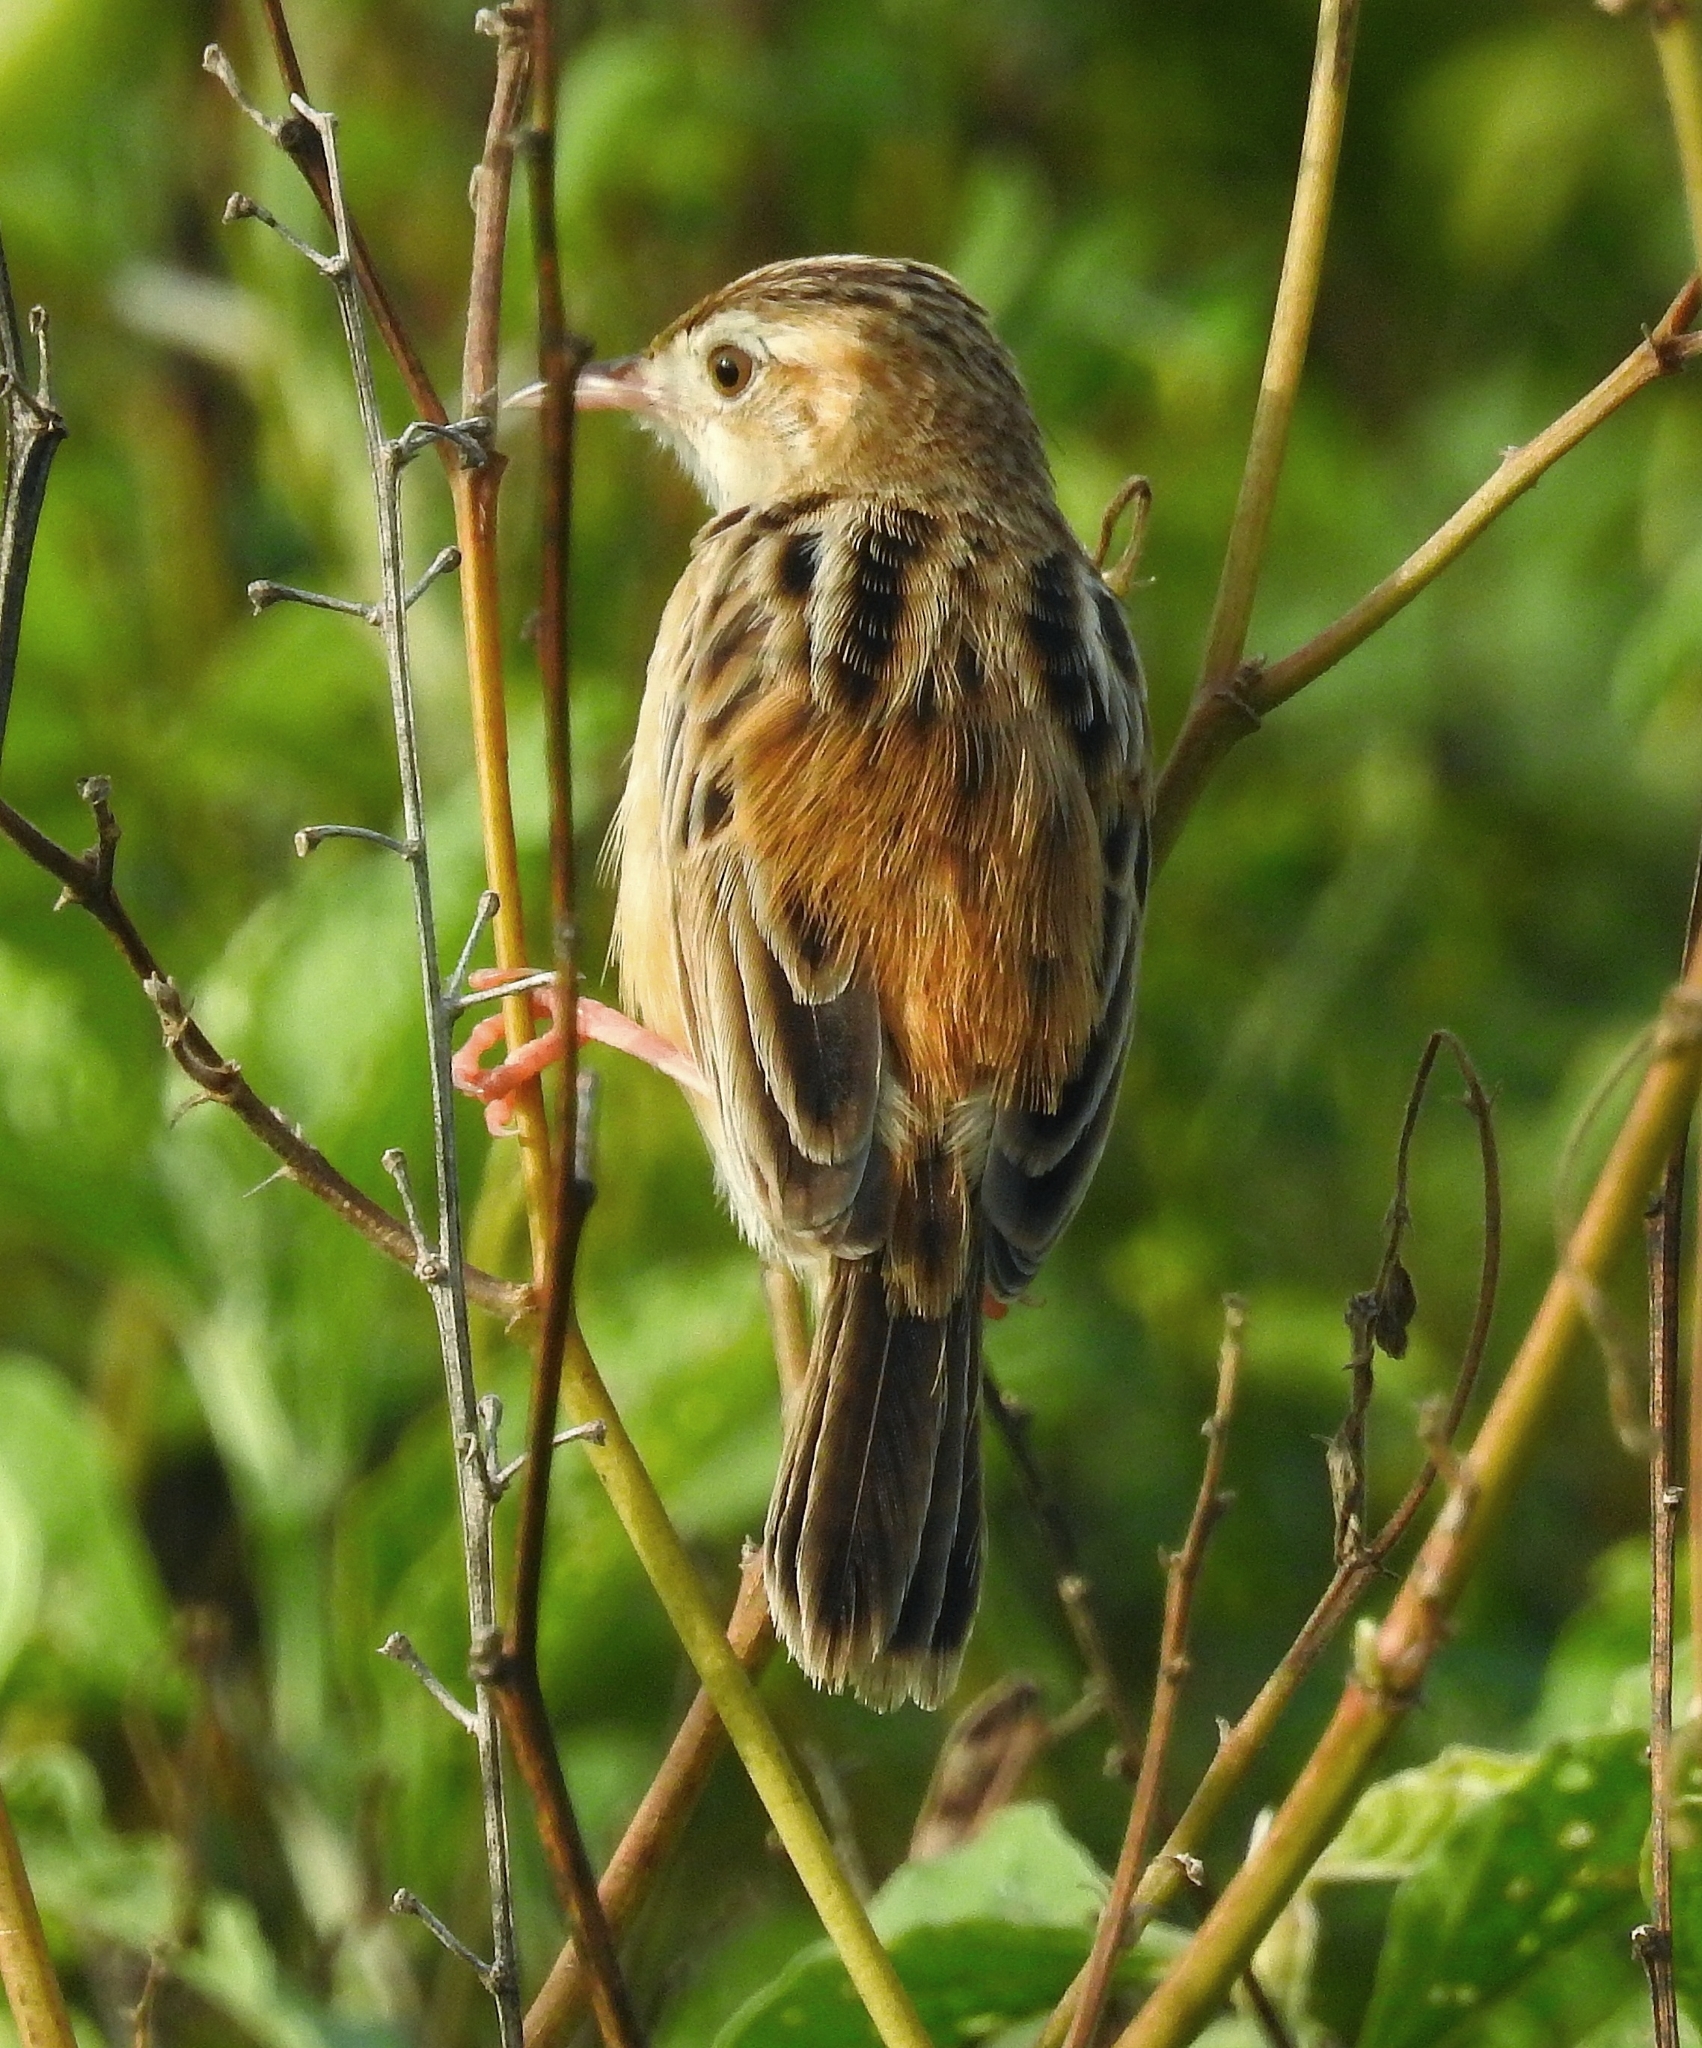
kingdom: Animalia
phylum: Chordata
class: Aves
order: Passeriformes
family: Cisticolidae
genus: Cisticola
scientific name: Cisticola juncidis
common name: Zitting cisticola
